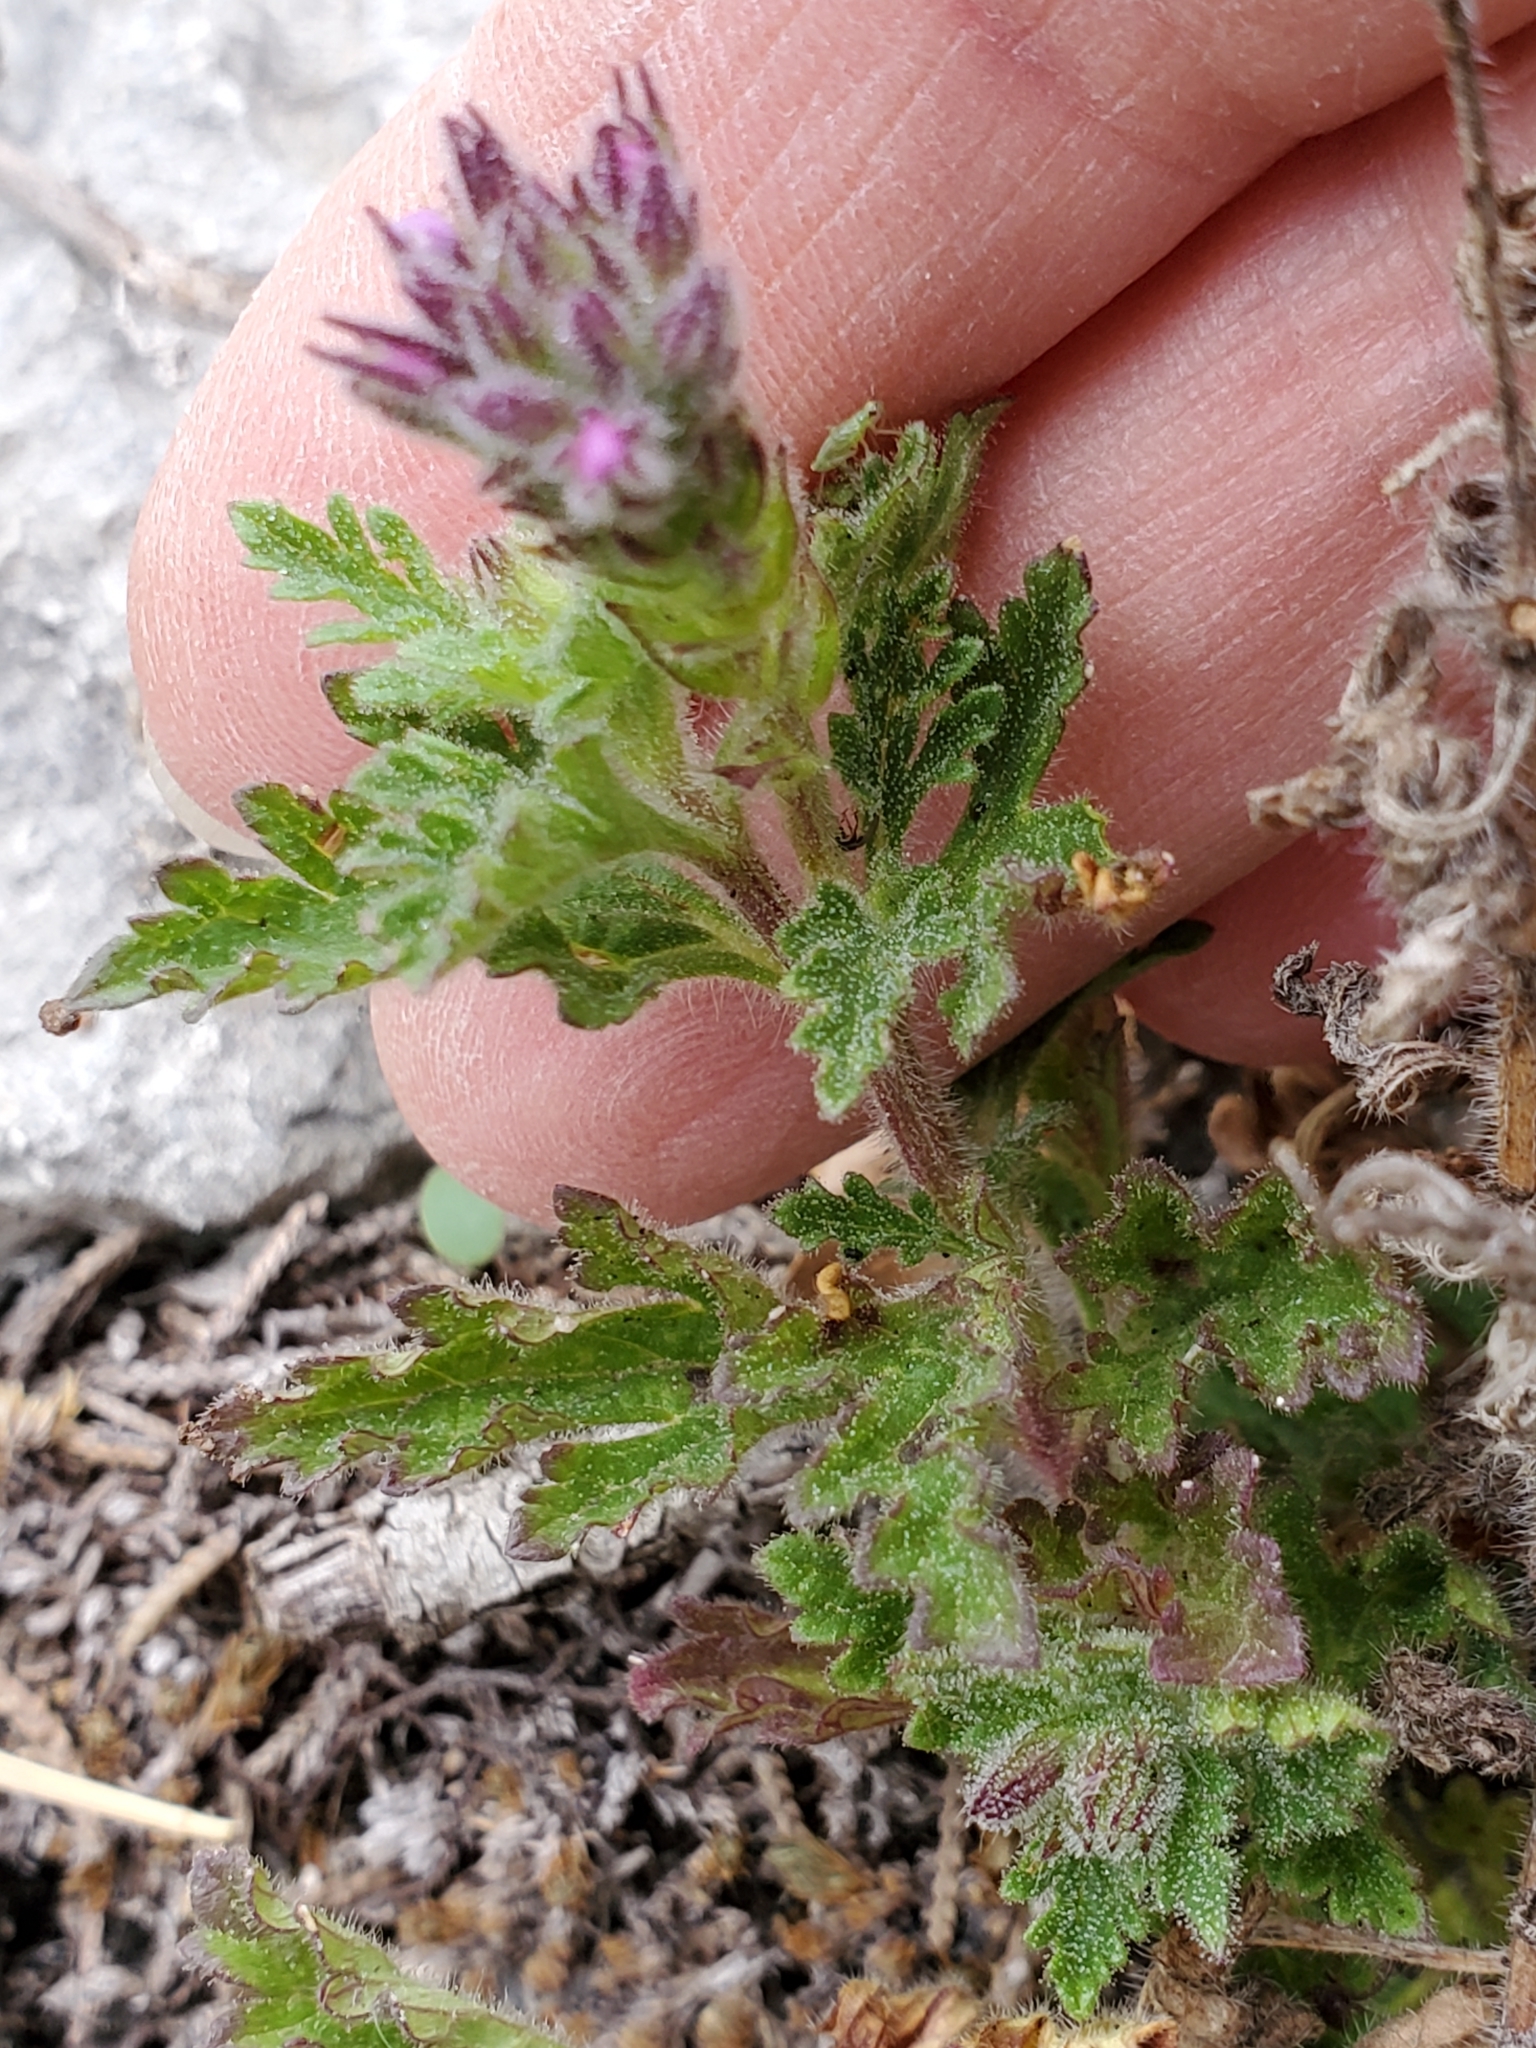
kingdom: Plantae
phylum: Tracheophyta
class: Magnoliopsida
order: Lamiales
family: Verbenaceae
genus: Verbena
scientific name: Verbena tumidula
